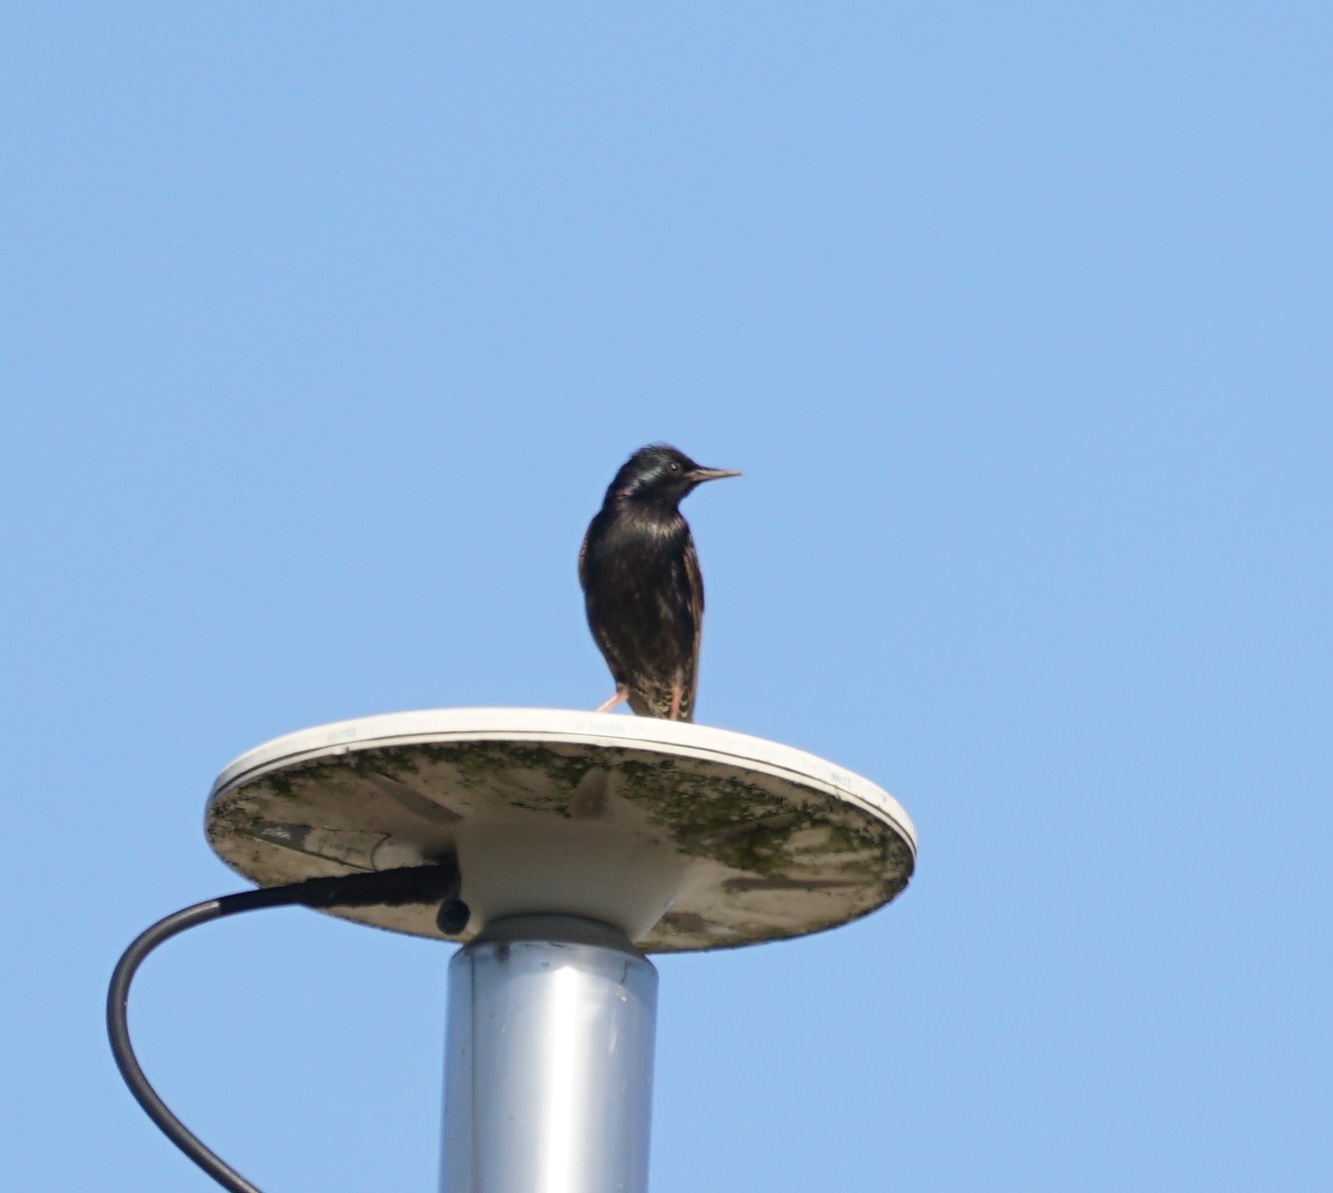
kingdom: Animalia
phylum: Chordata
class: Aves
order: Passeriformes
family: Sturnidae
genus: Sturnus
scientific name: Sturnus vulgaris
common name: Common starling
